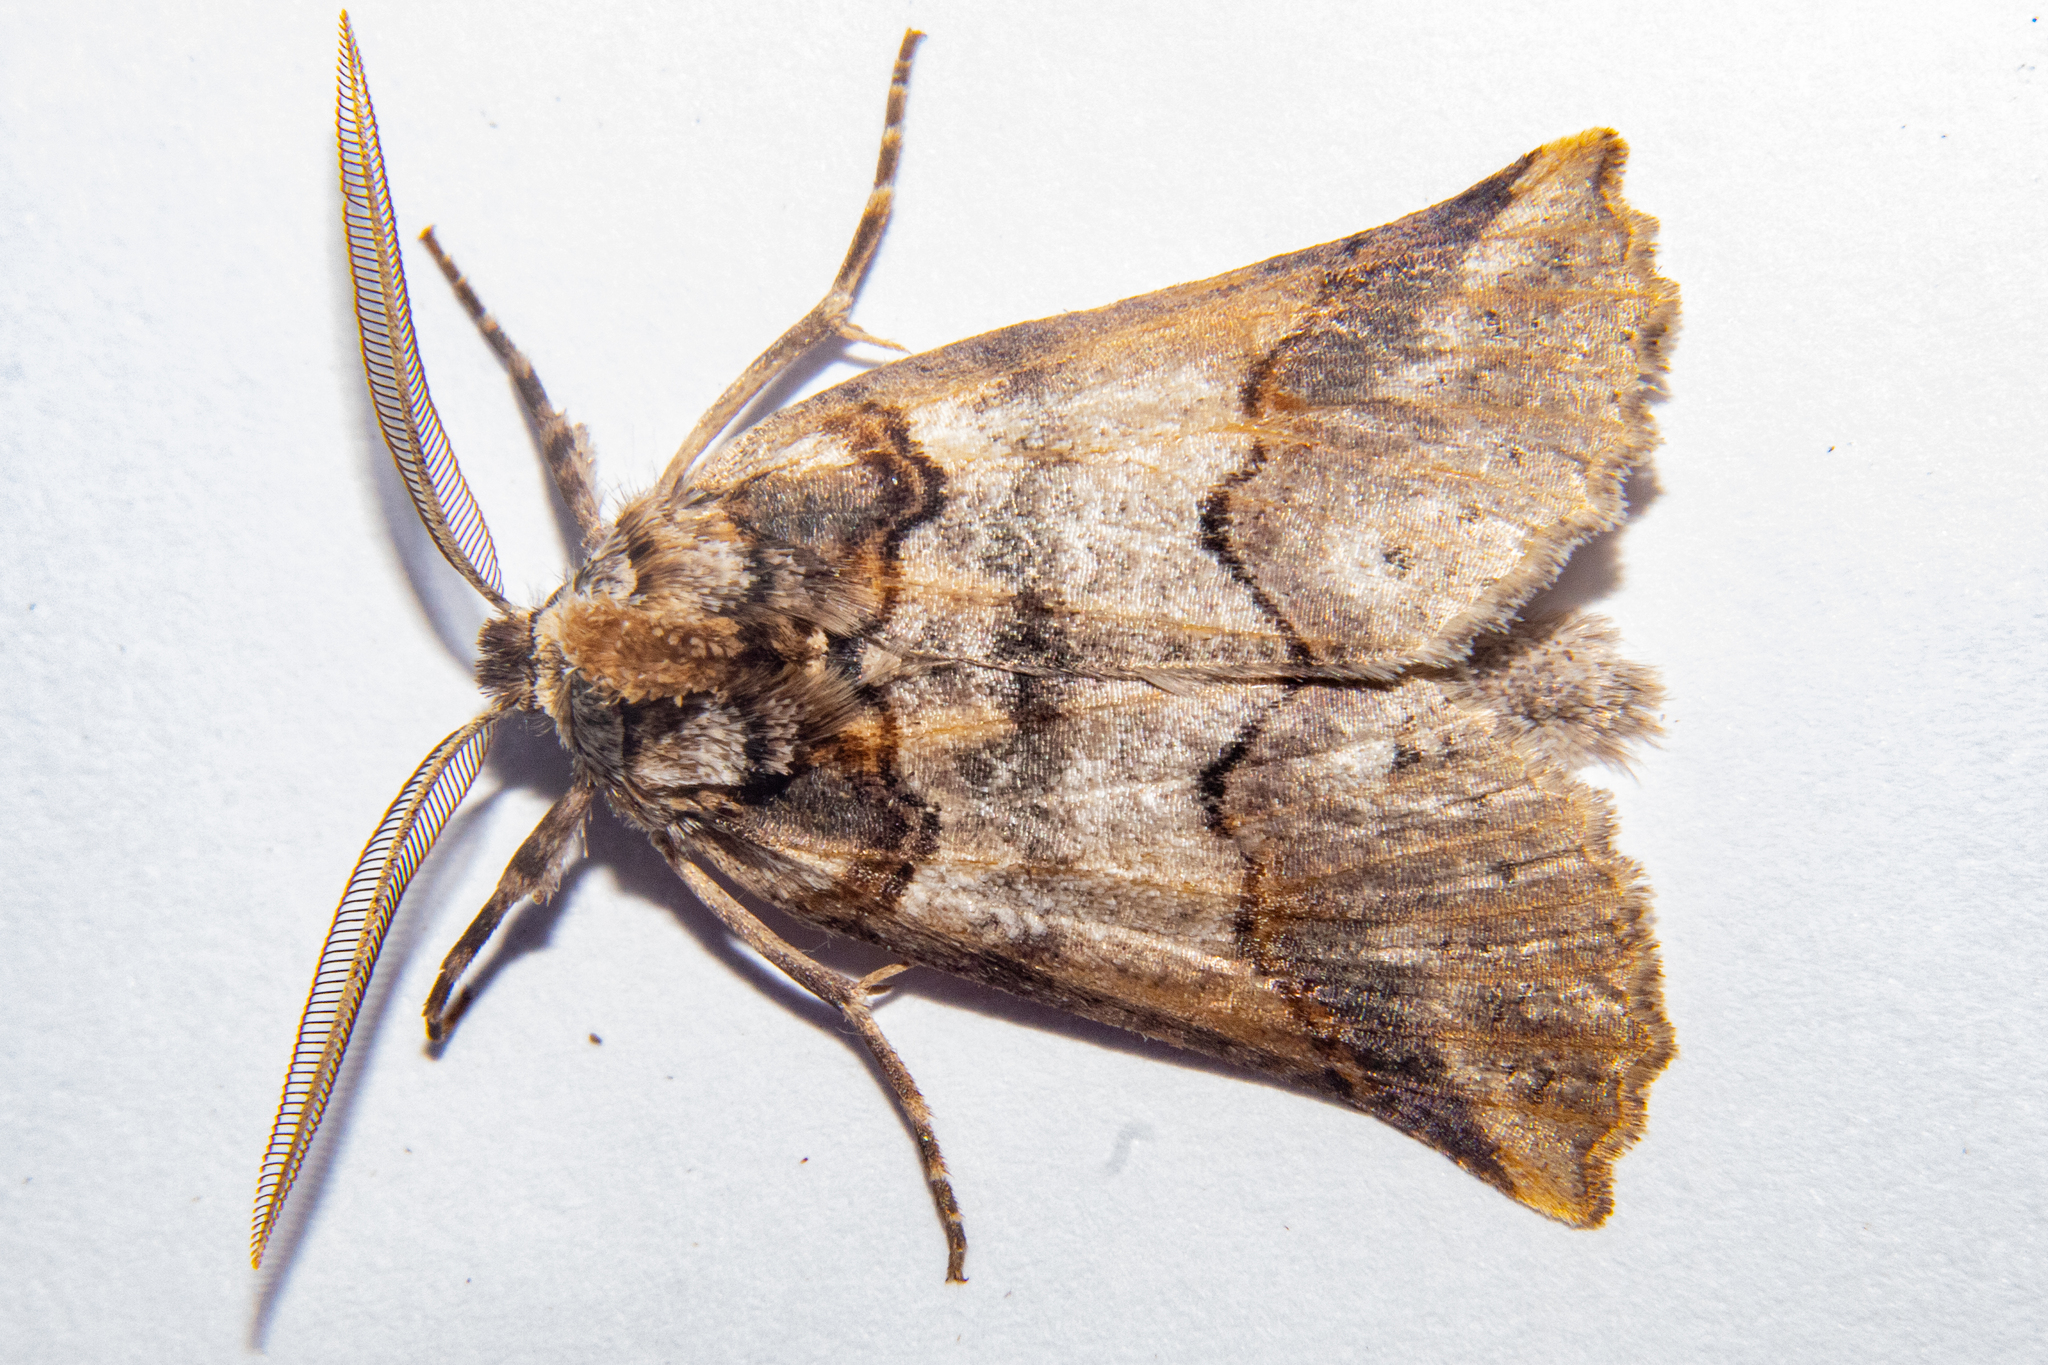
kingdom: Animalia
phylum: Arthropoda
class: Insecta
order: Lepidoptera
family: Geometridae
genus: Declana
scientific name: Declana
